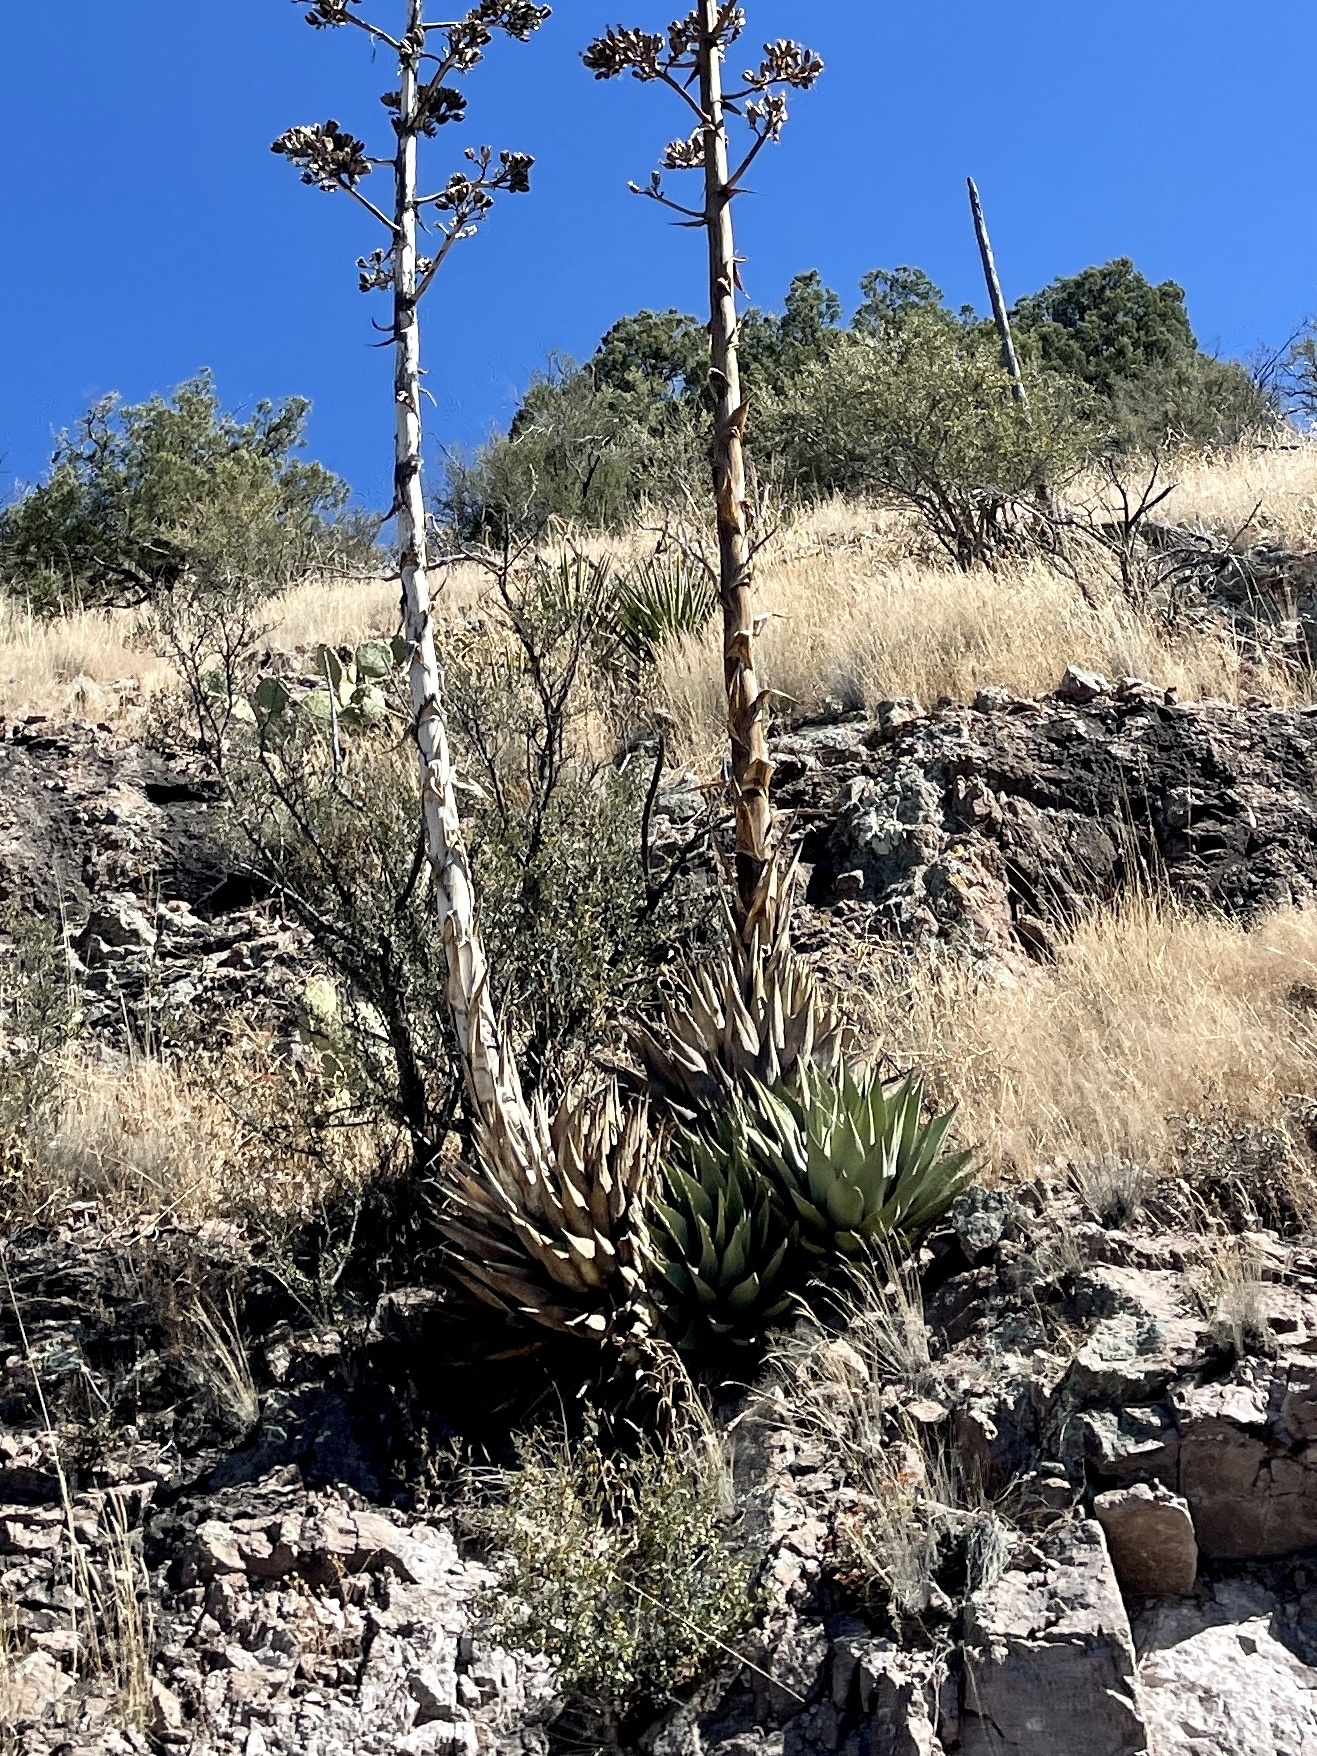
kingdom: Plantae
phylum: Tracheophyta
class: Liliopsida
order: Asparagales
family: Asparagaceae
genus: Agave
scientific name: Agave parryi
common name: Parry's agave
